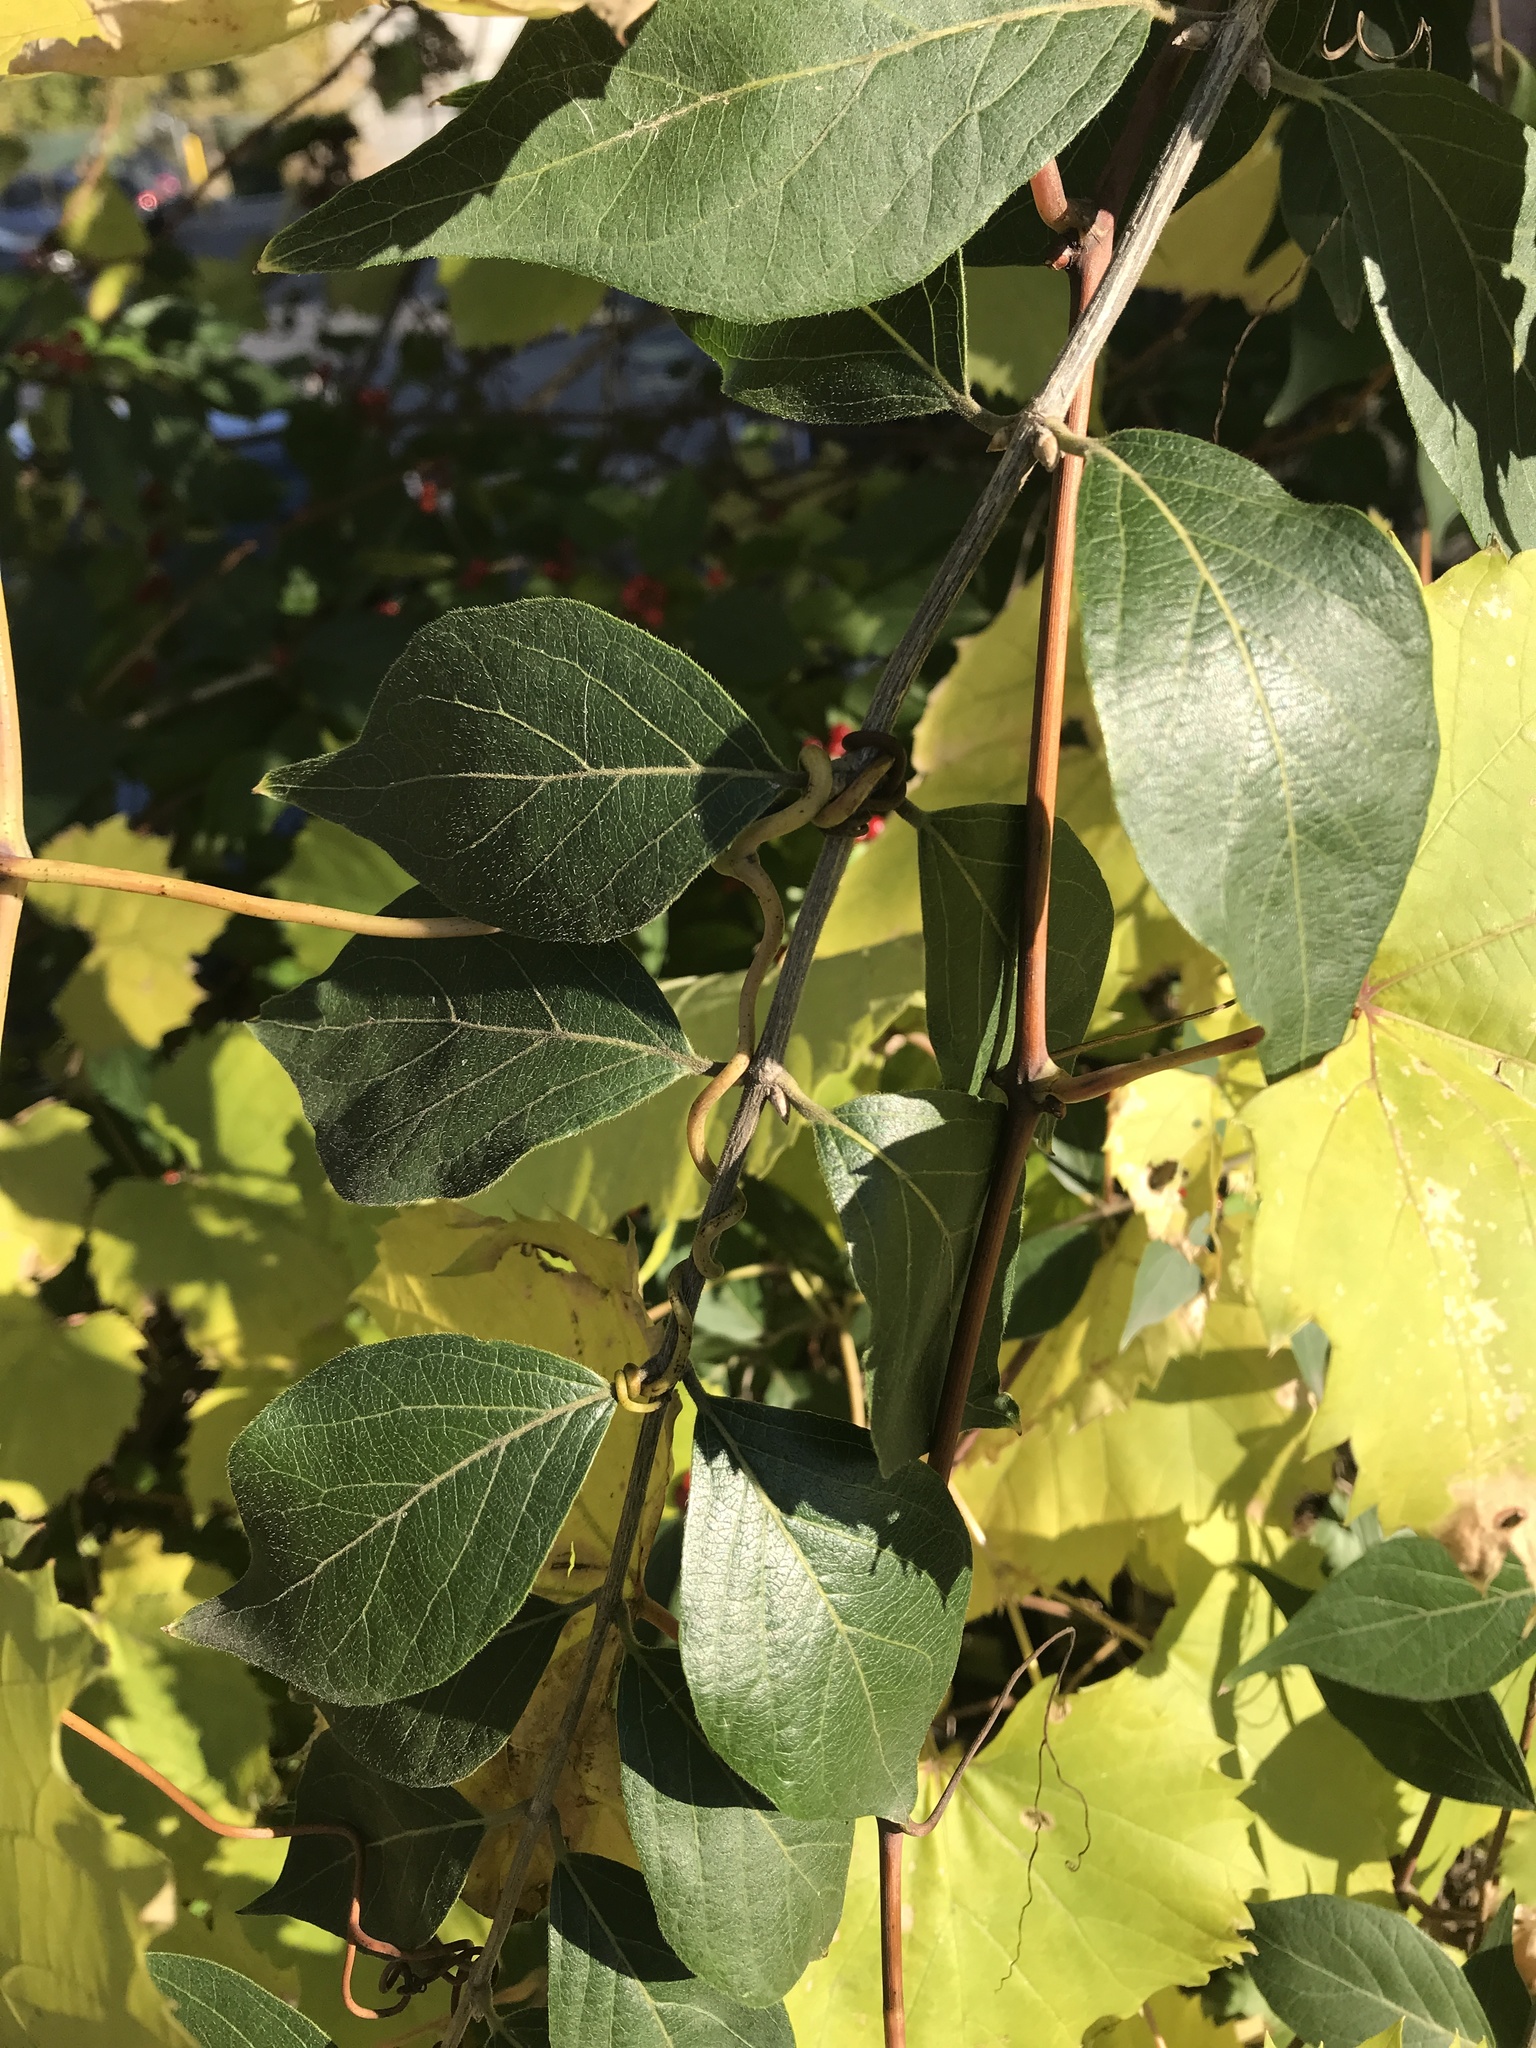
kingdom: Plantae
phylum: Tracheophyta
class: Magnoliopsida
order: Dipsacales
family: Caprifoliaceae
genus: Lonicera
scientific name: Lonicera maackii
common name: Amur honeysuckle
